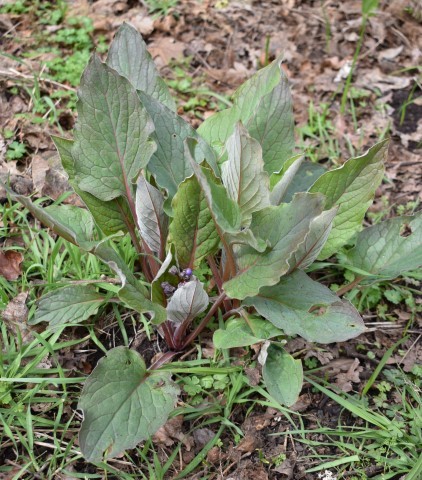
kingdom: Plantae
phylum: Tracheophyta
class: Magnoliopsida
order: Boraginales
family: Boraginaceae
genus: Adelinia
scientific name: Adelinia grande
